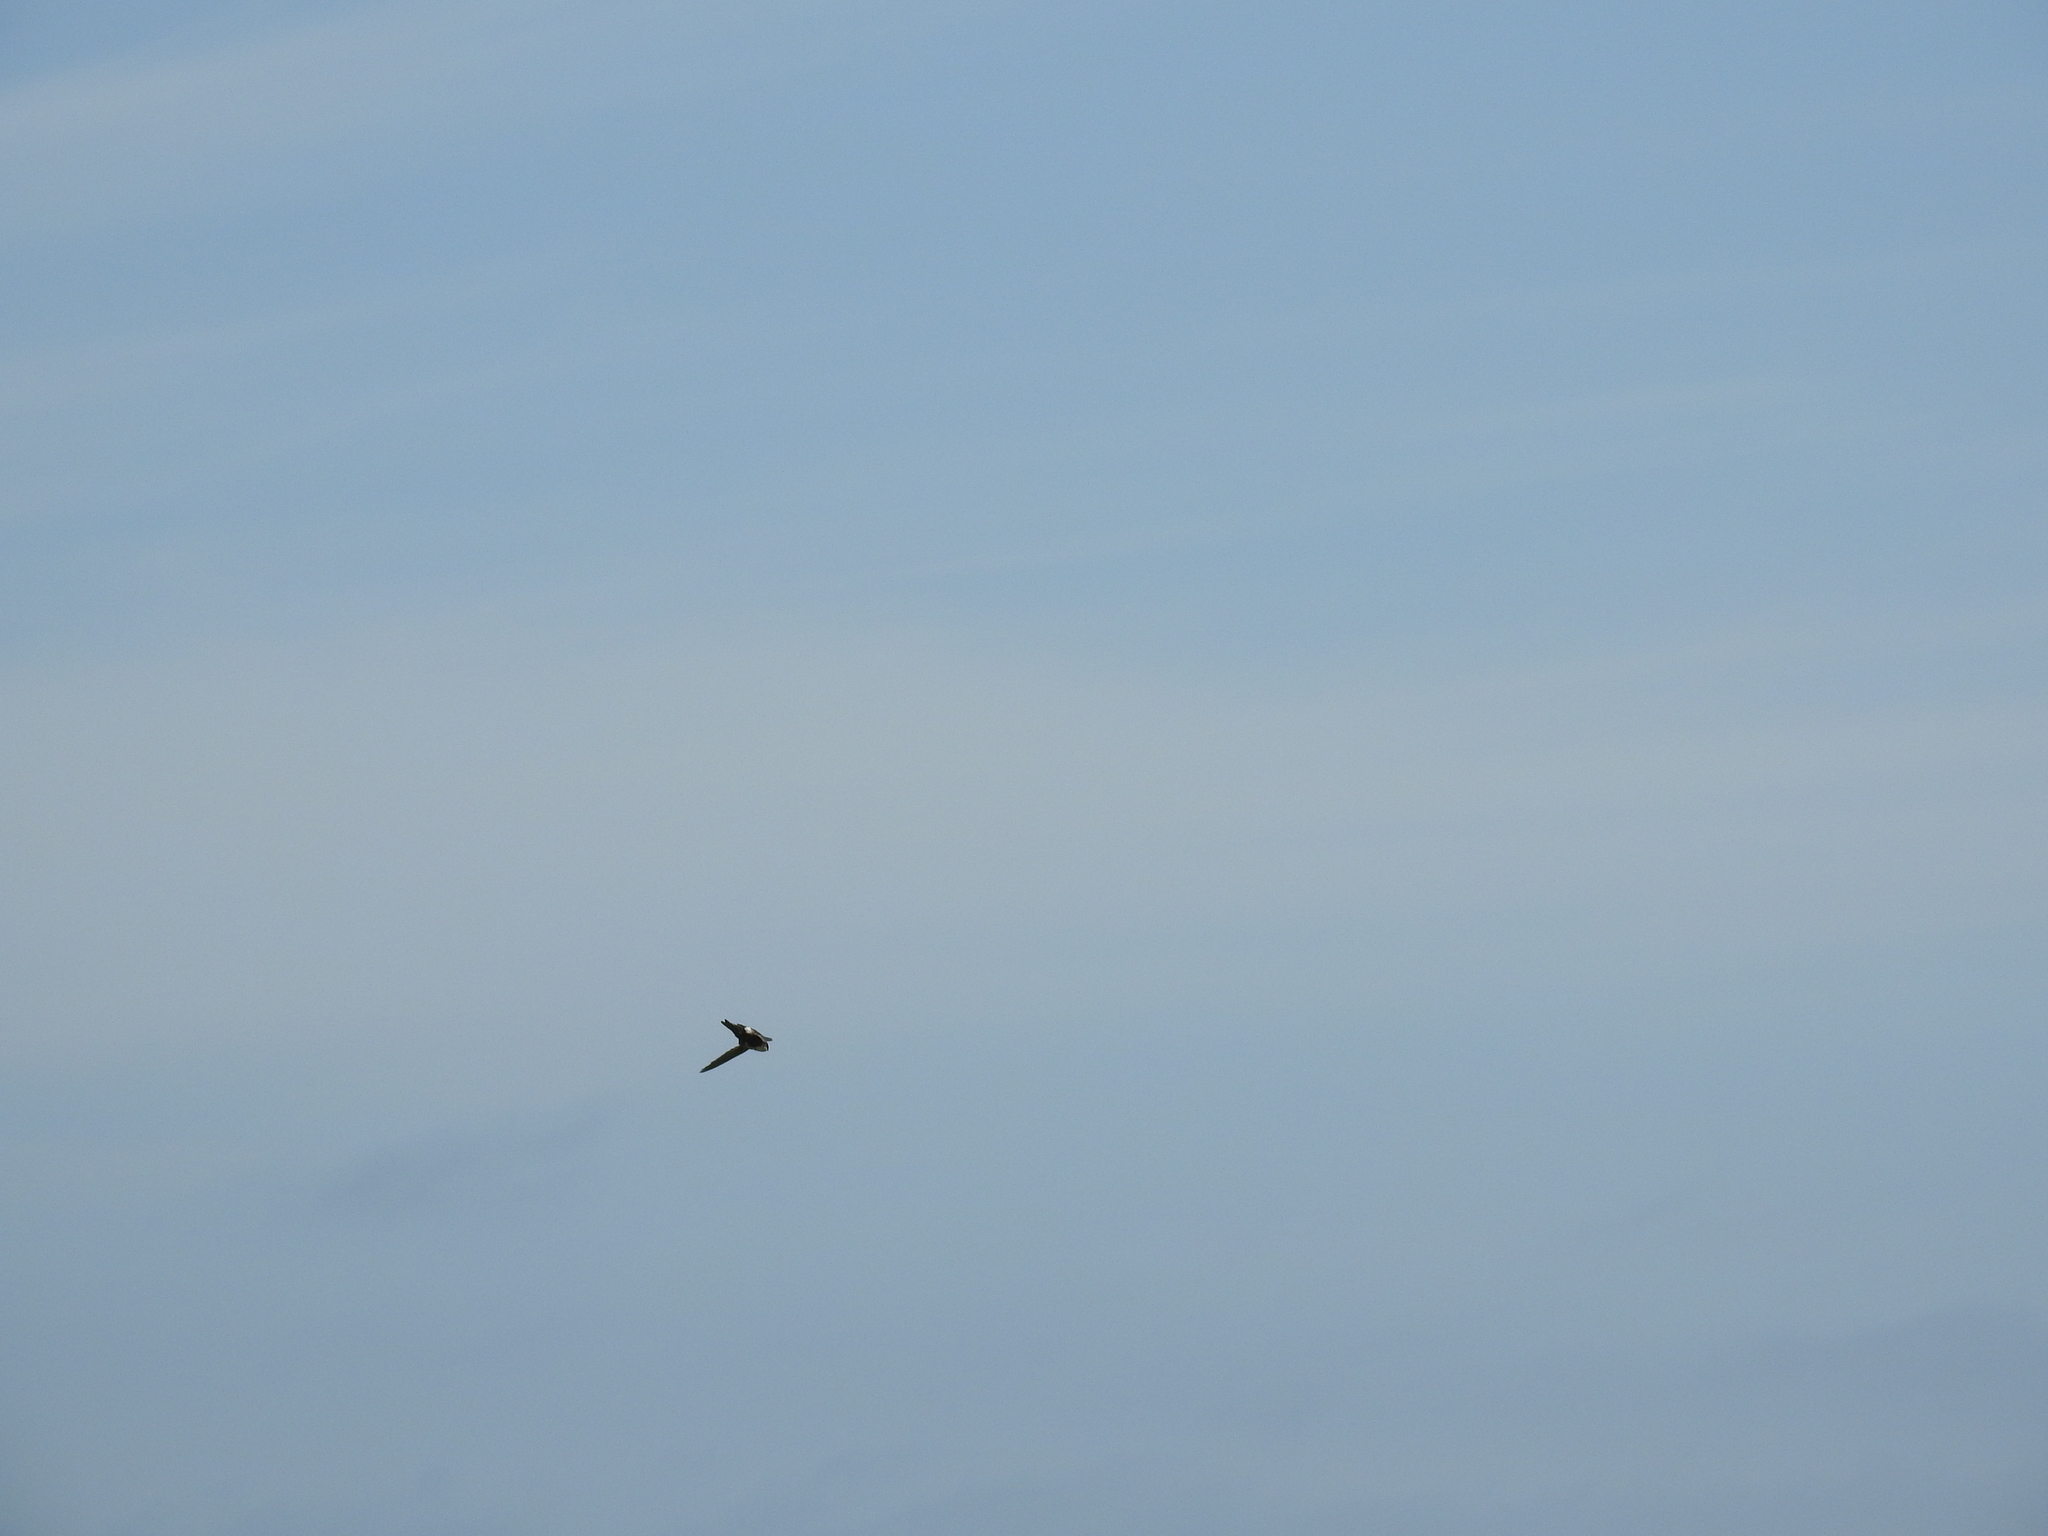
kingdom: Animalia
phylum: Chordata
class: Aves
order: Apodiformes
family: Apodidae
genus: Aeronautes
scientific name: Aeronautes saxatalis
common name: White-throated swift
